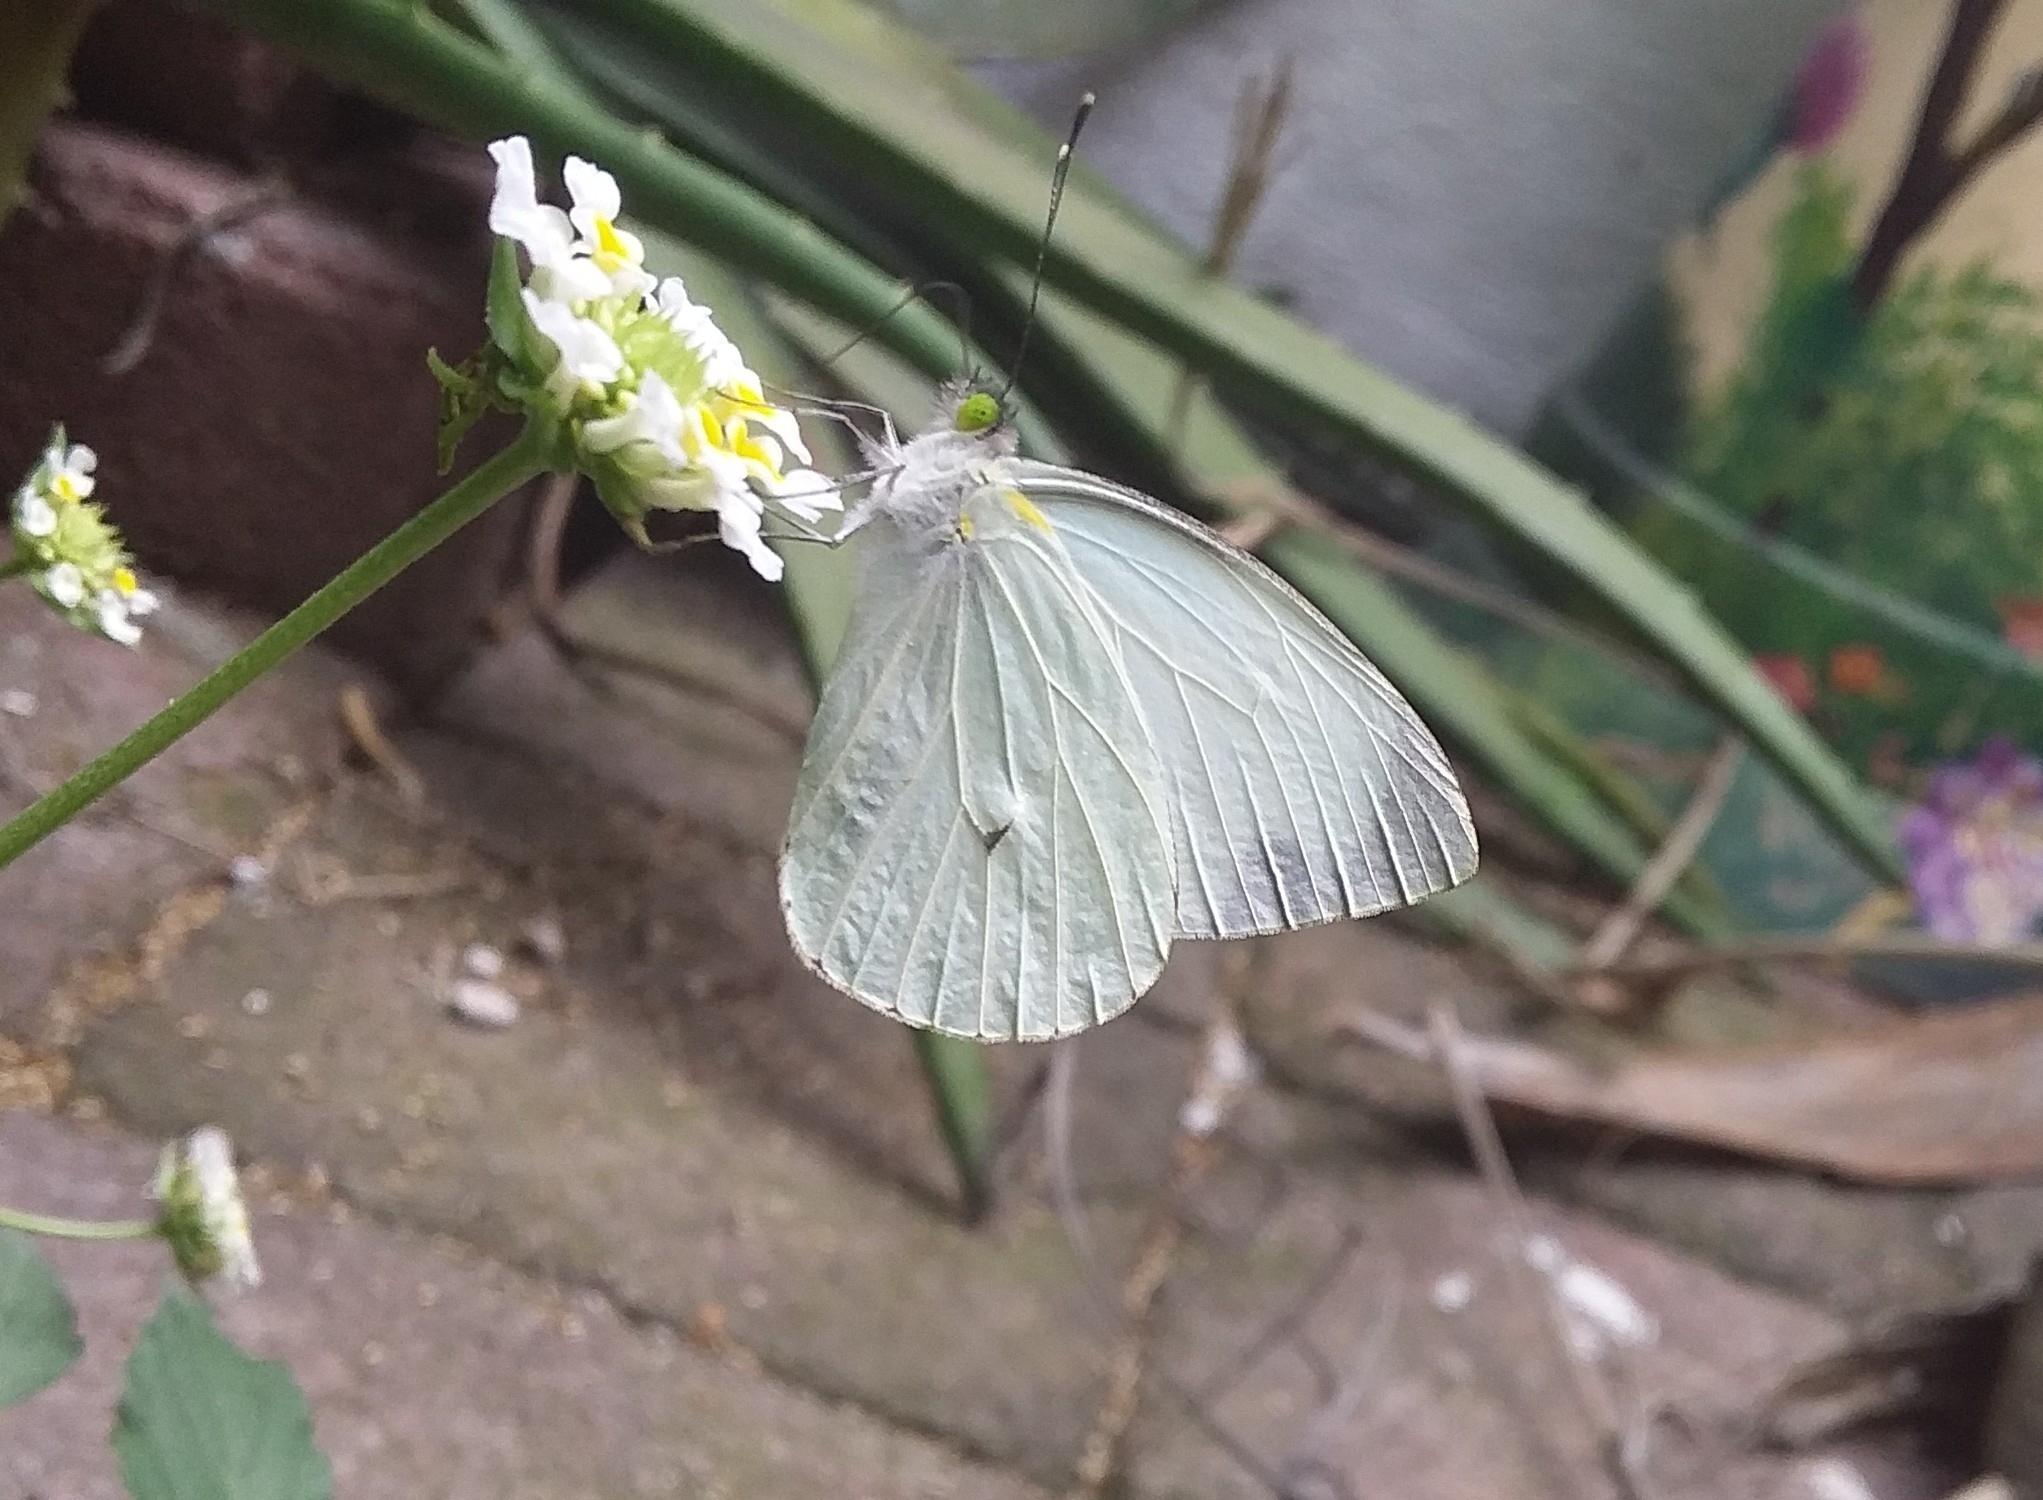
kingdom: Animalia
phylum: Arthropoda
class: Insecta
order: Lepidoptera
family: Pieridae
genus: Leptophobia
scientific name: Leptophobia aripa
